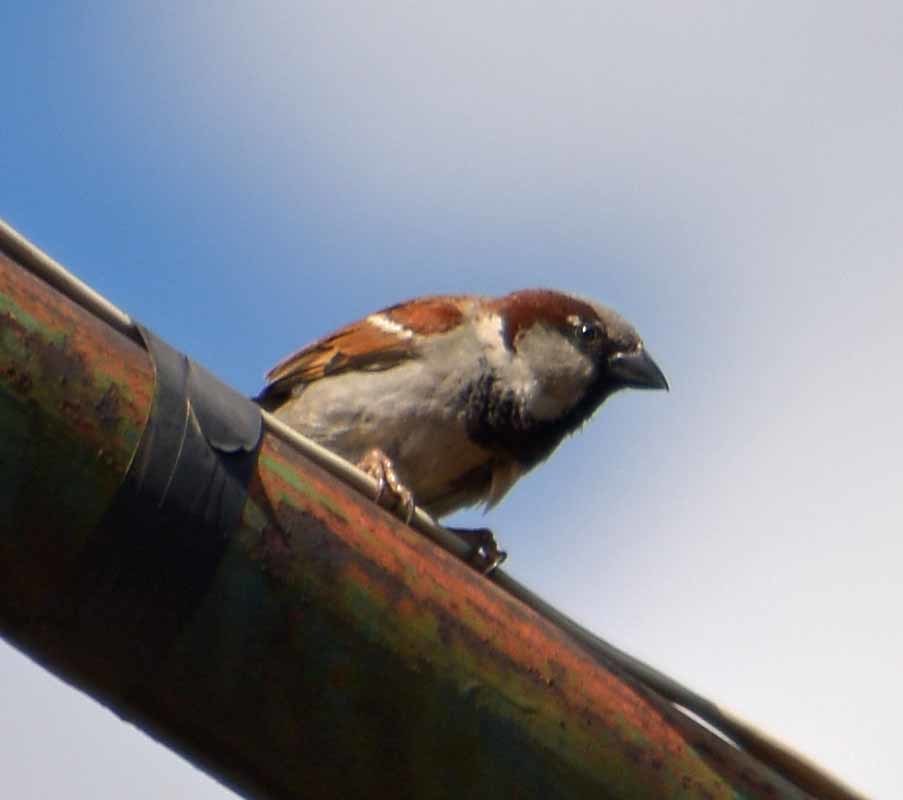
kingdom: Animalia
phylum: Chordata
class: Aves
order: Passeriformes
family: Passeridae
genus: Passer
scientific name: Passer domesticus
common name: House sparrow
